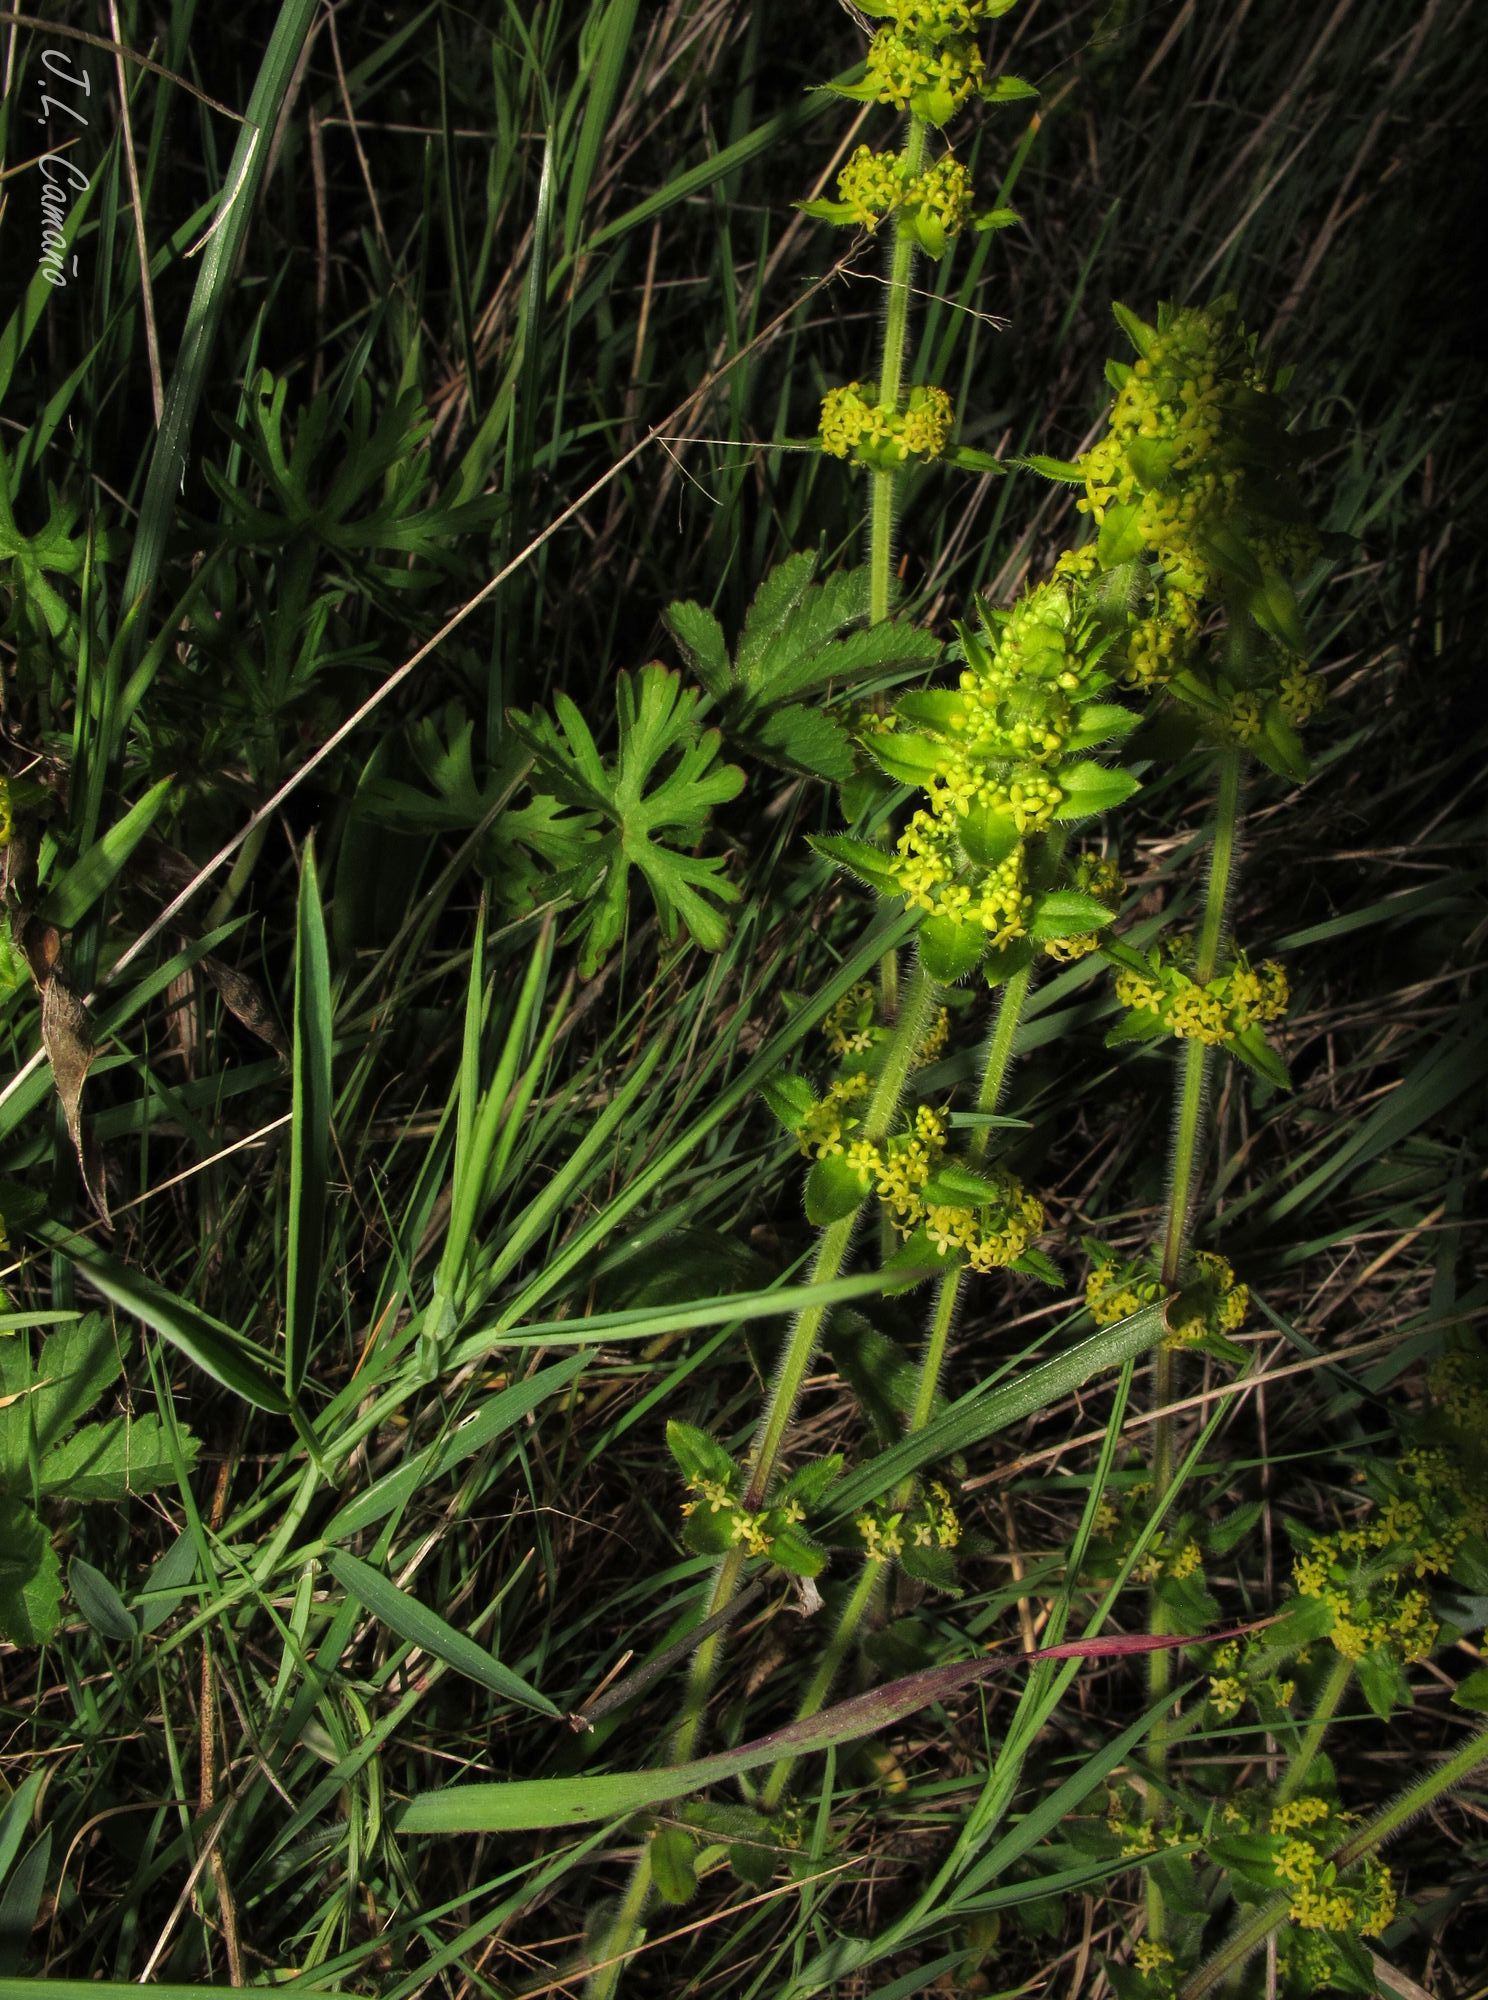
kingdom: Plantae
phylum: Tracheophyta
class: Magnoliopsida
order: Gentianales
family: Rubiaceae
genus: Cruciata
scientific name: Cruciata laevipes
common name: Crosswort
